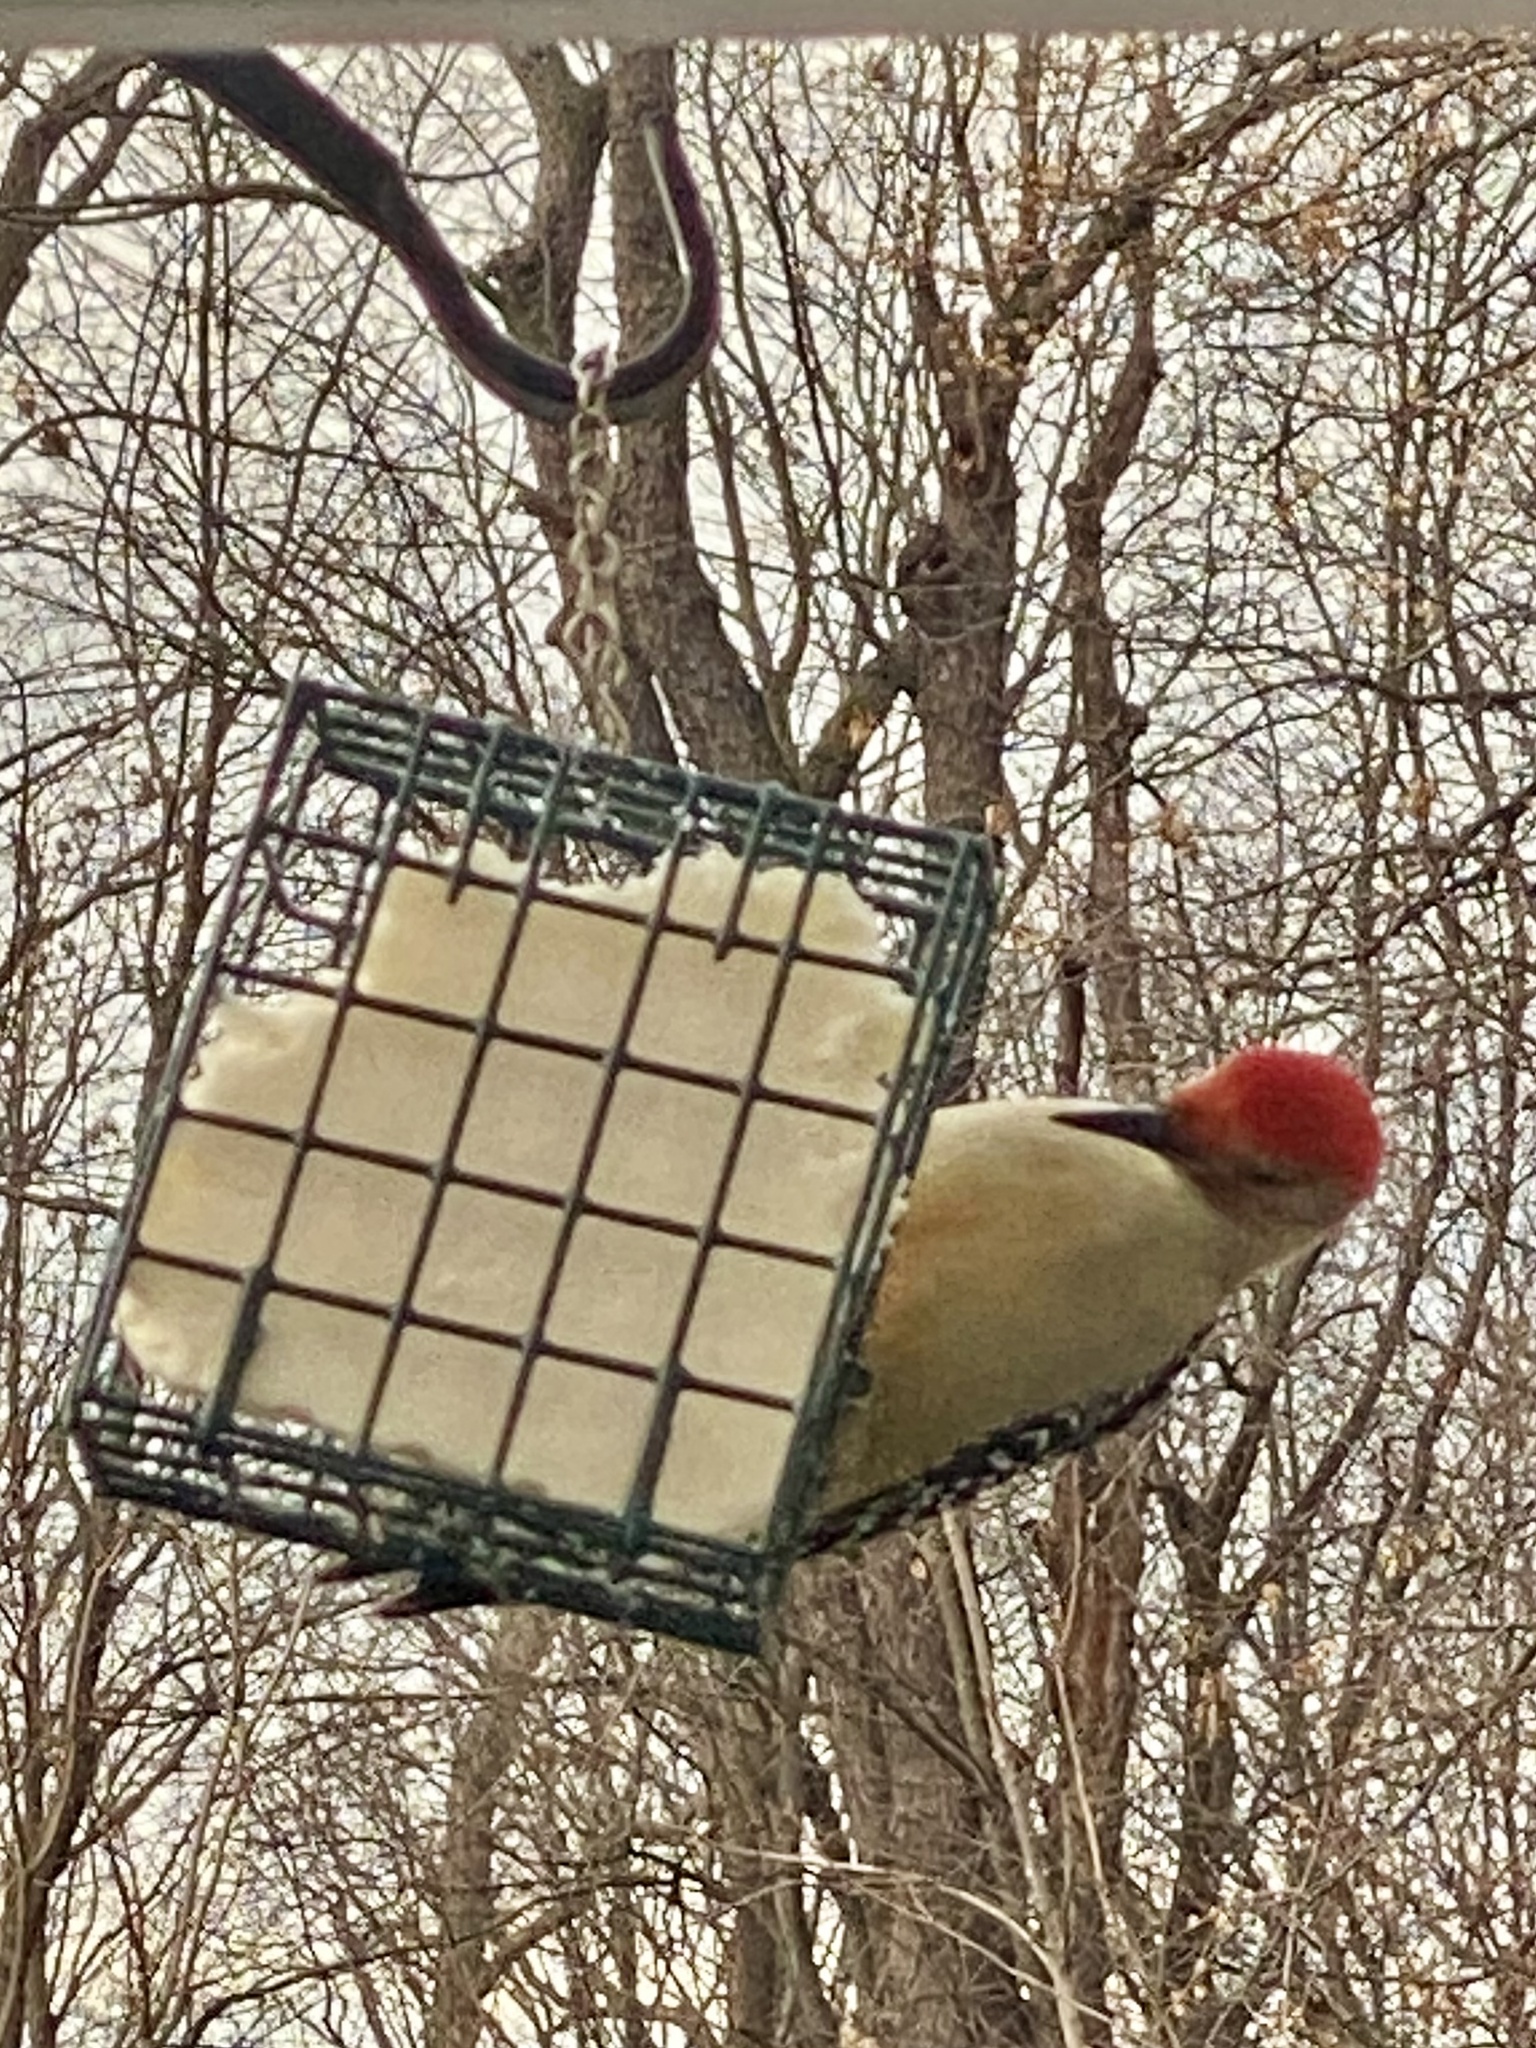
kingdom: Animalia
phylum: Chordata
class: Aves
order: Piciformes
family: Picidae
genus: Melanerpes
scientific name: Melanerpes carolinus
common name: Red-bellied woodpecker
